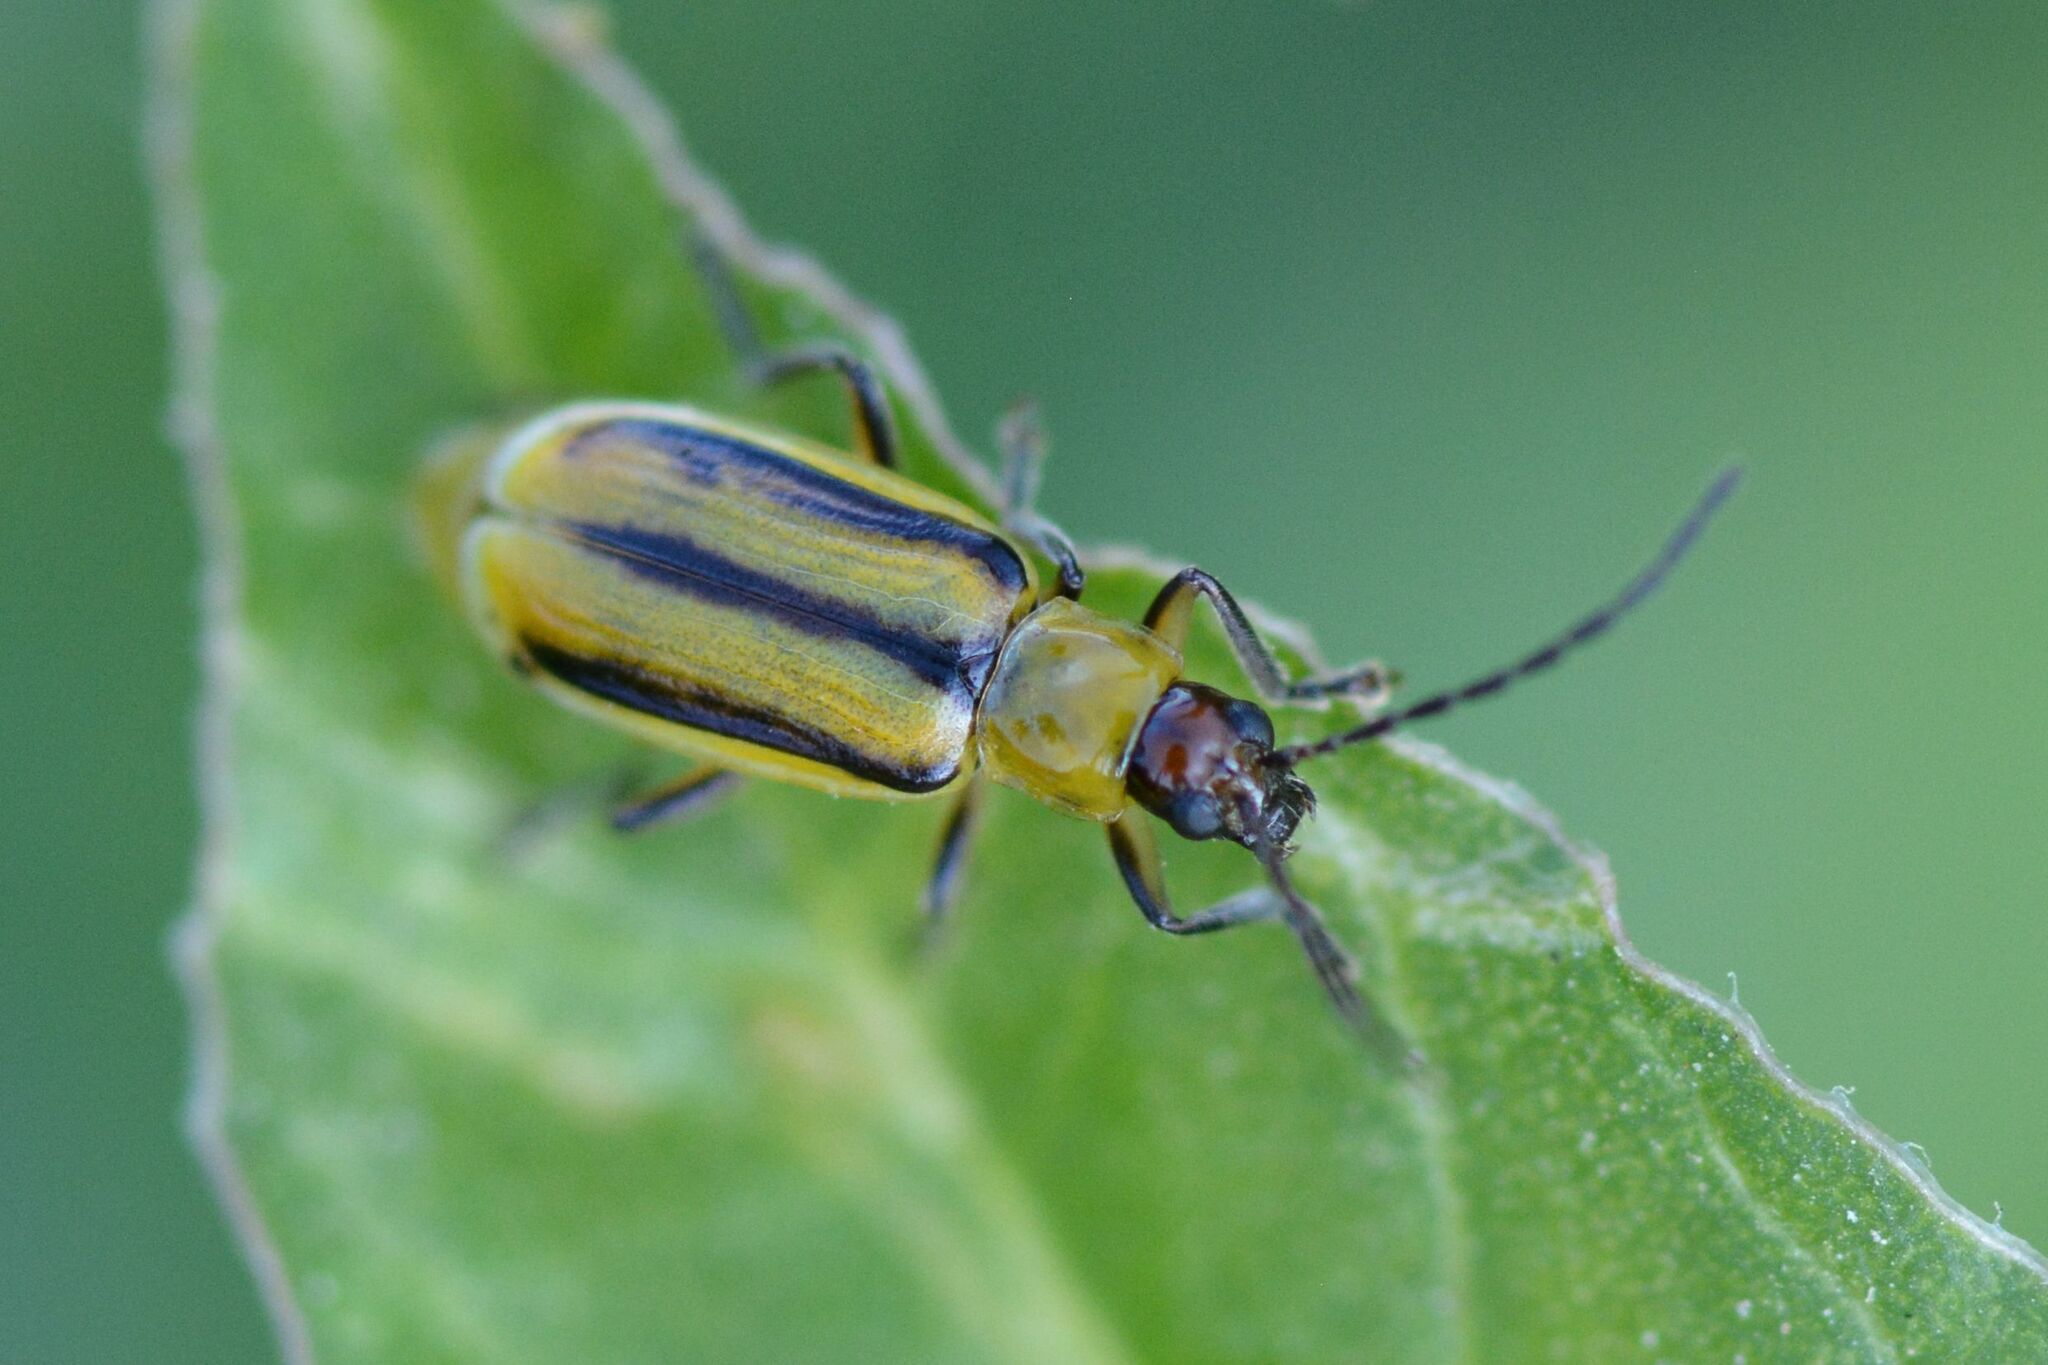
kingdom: Animalia
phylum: Arthropoda
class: Insecta
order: Coleoptera
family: Chrysomelidae
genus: Diabrotica
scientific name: Diabrotica virgifera
